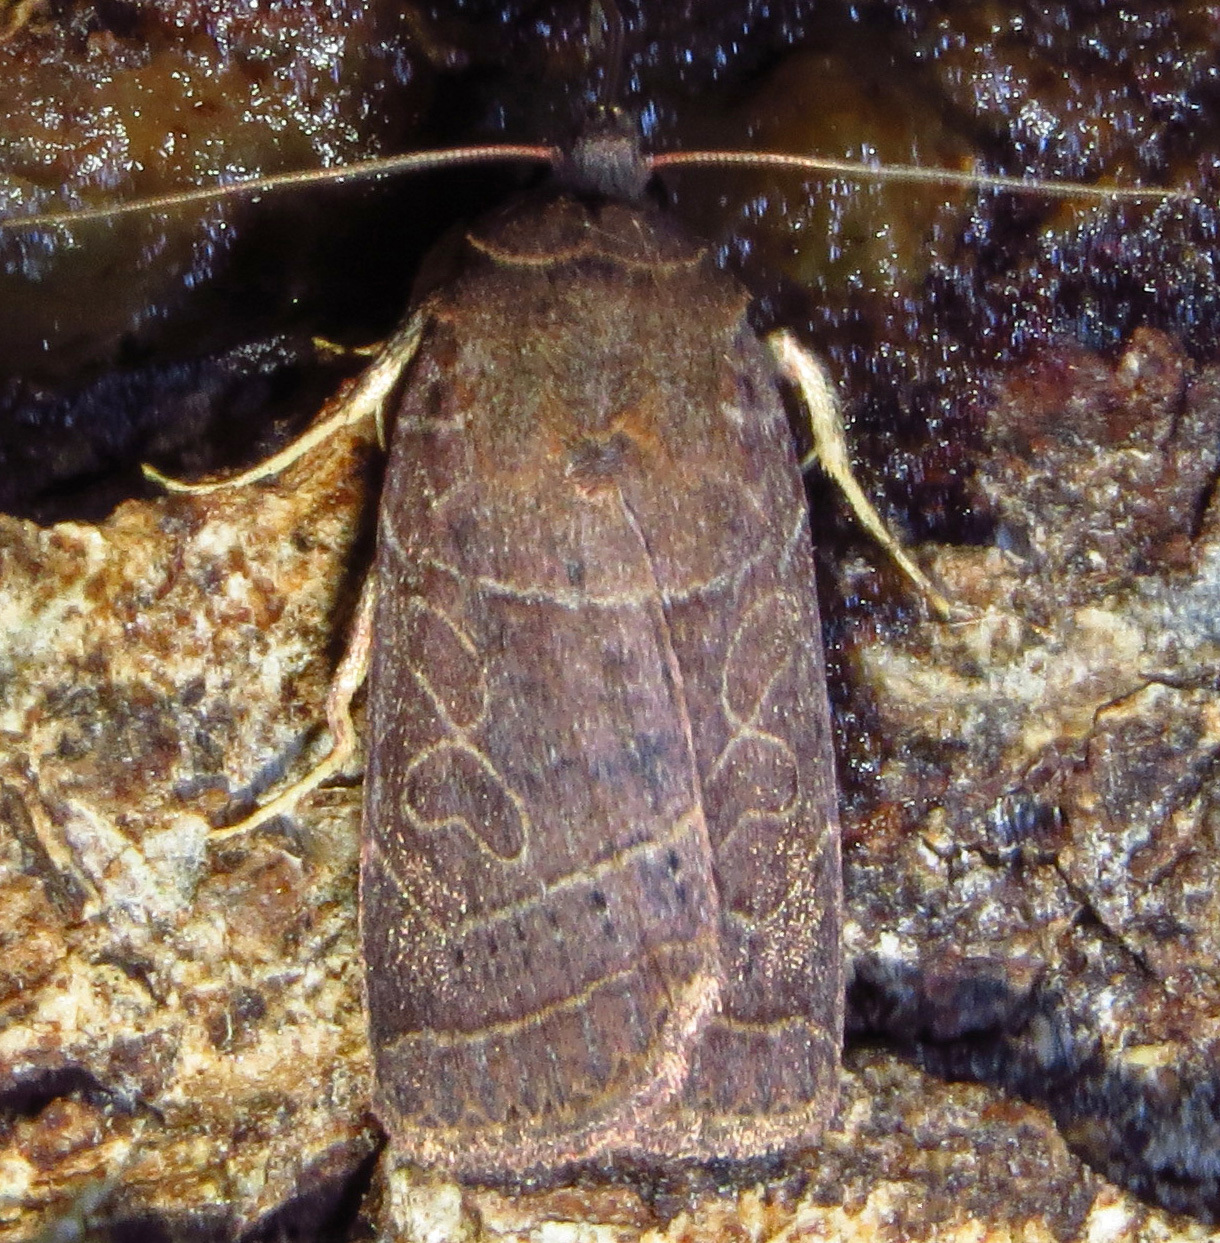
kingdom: Animalia
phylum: Arthropoda
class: Insecta
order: Lepidoptera
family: Noctuidae
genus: Orthodes
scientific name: Orthodes majuscula
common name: Rustic quaker
